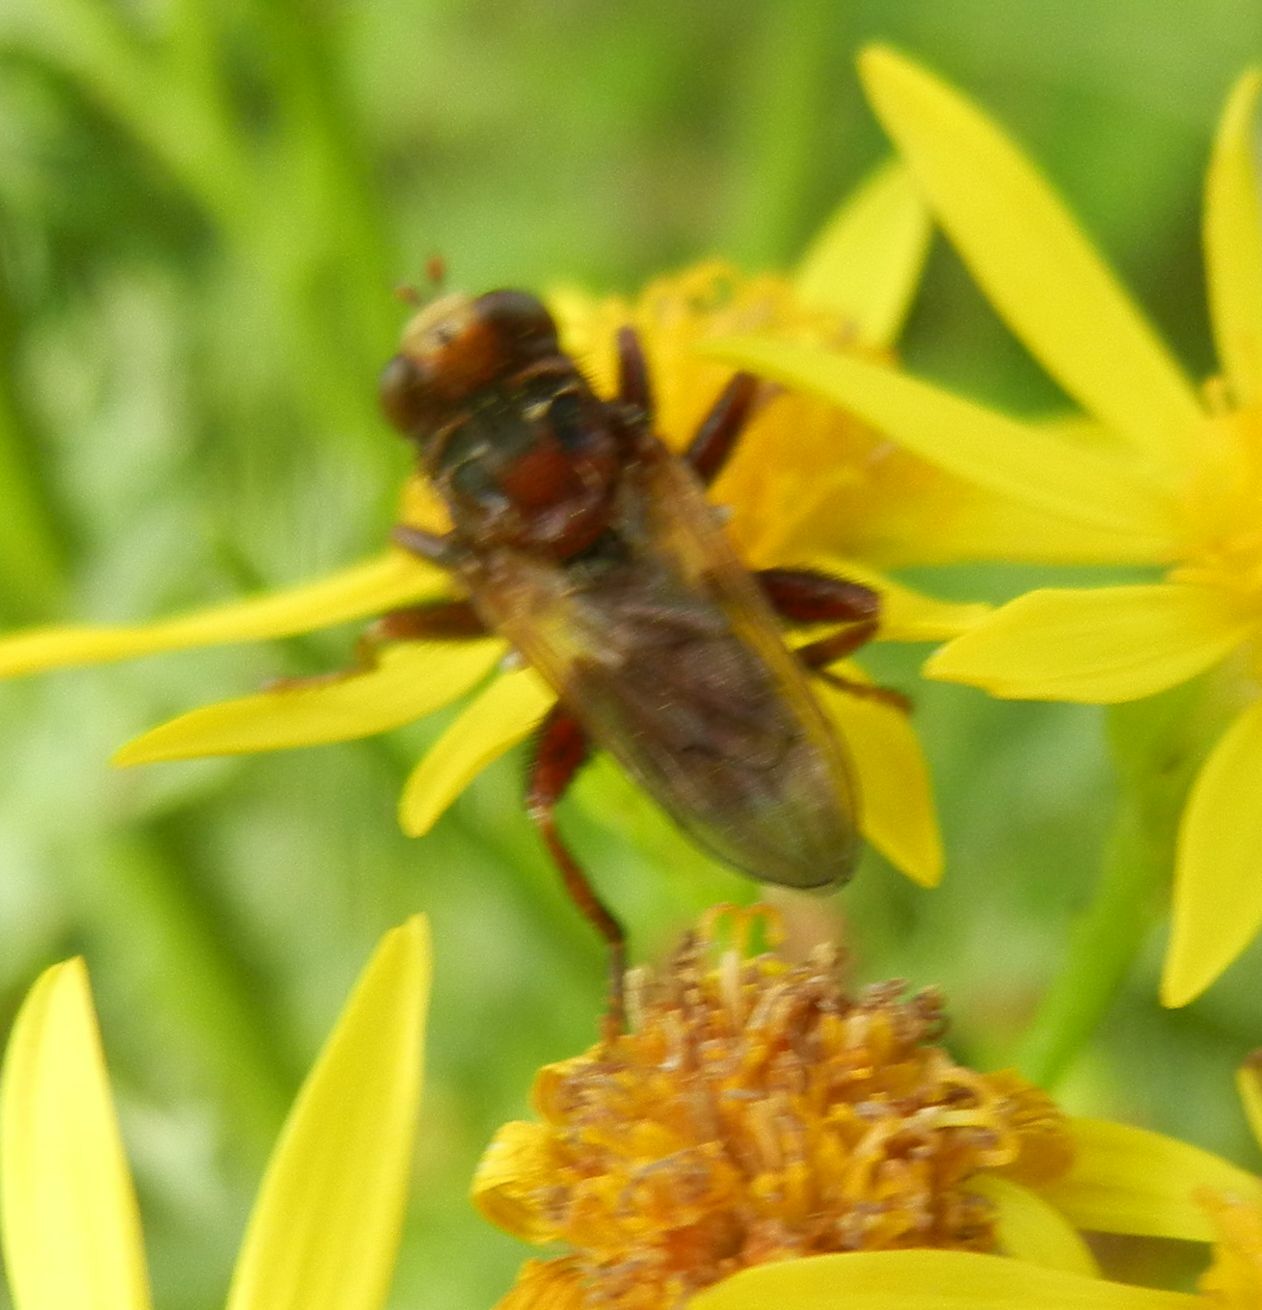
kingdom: Animalia
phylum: Arthropoda
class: Insecta
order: Diptera
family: Conopidae
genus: Sicus
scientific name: Sicus ferrugineus
